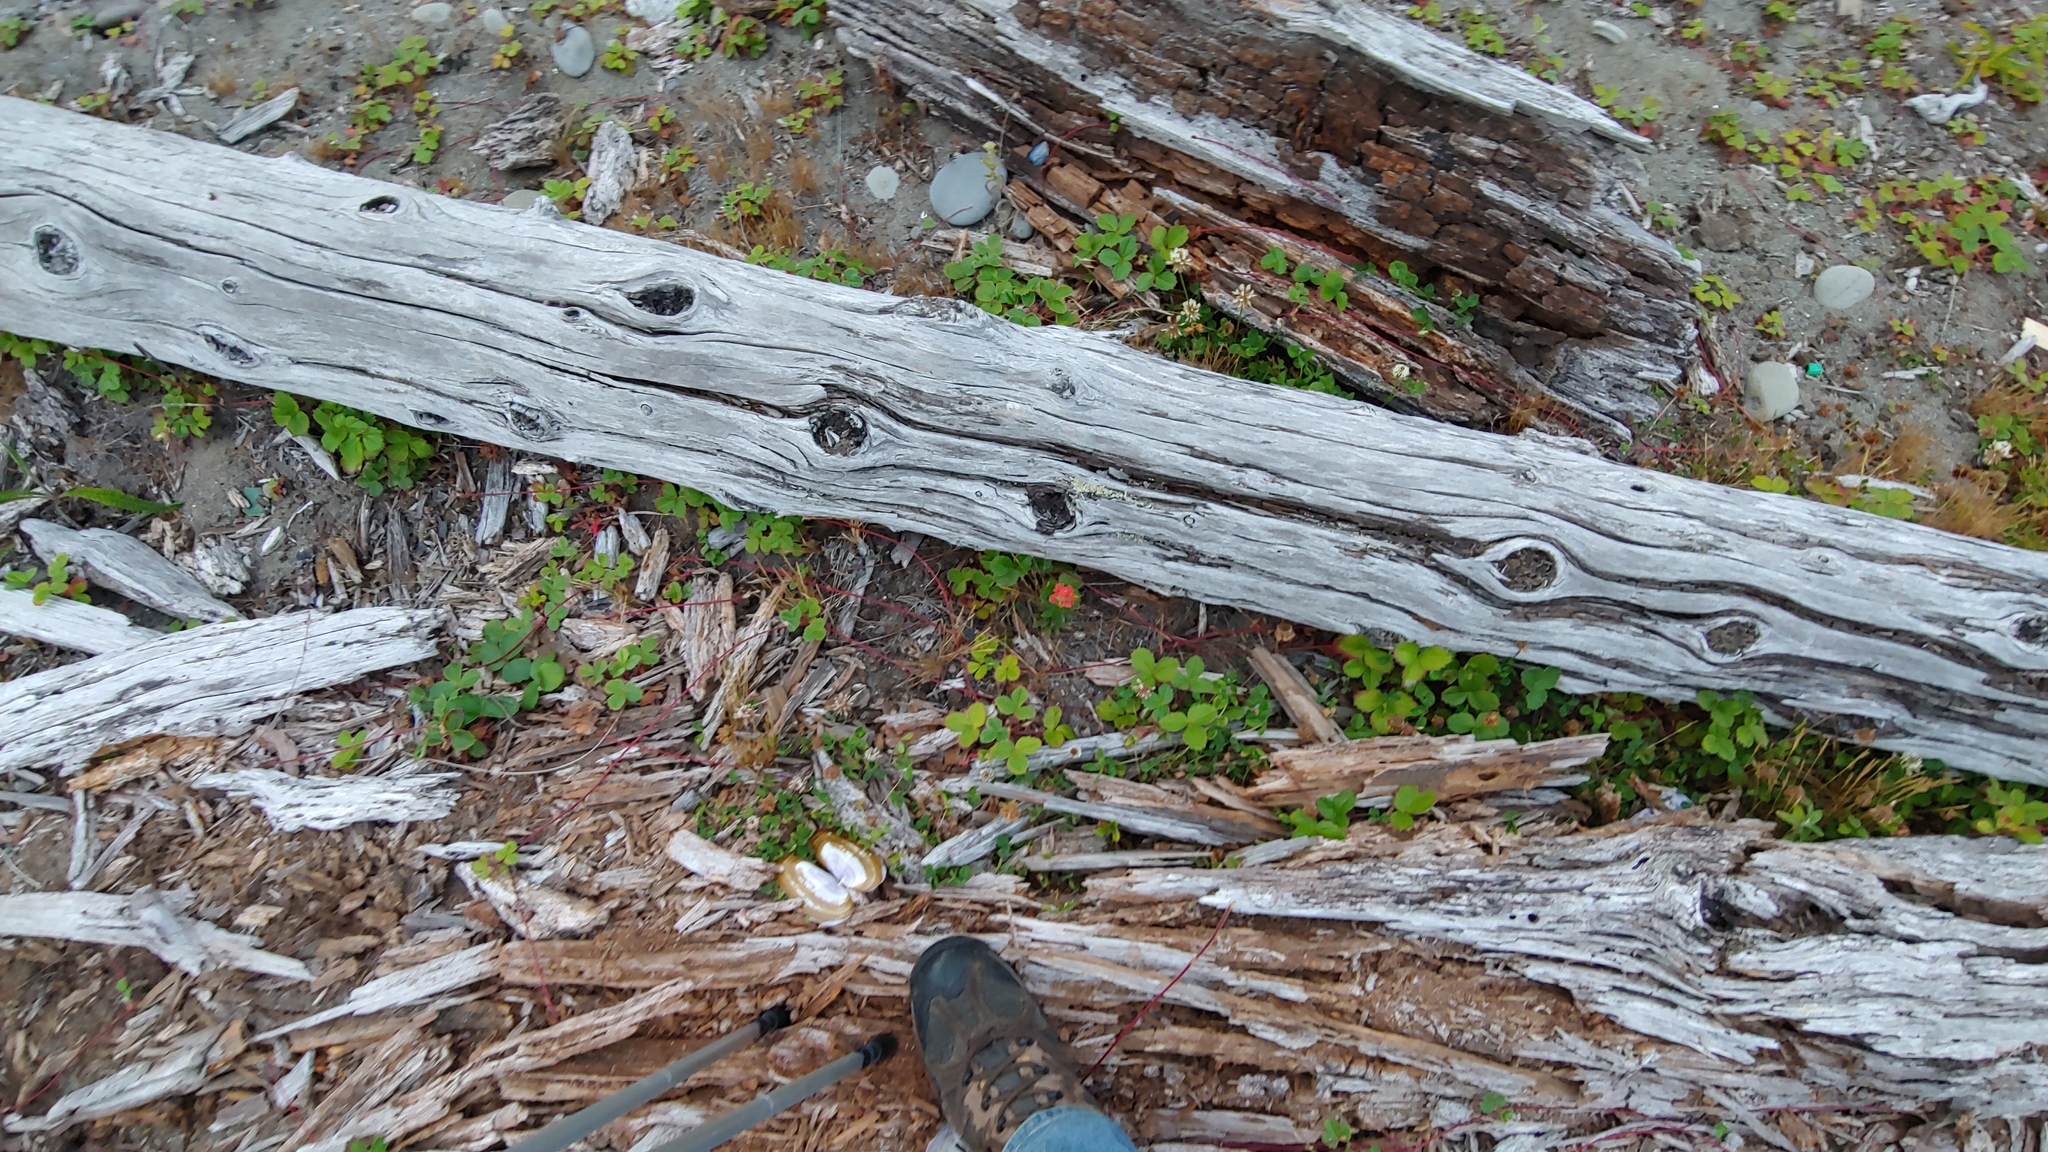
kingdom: Plantae
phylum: Tracheophyta
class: Magnoliopsida
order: Rosales
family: Rosaceae
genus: Fragaria
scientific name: Fragaria chiloensis
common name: Beach strawberry
